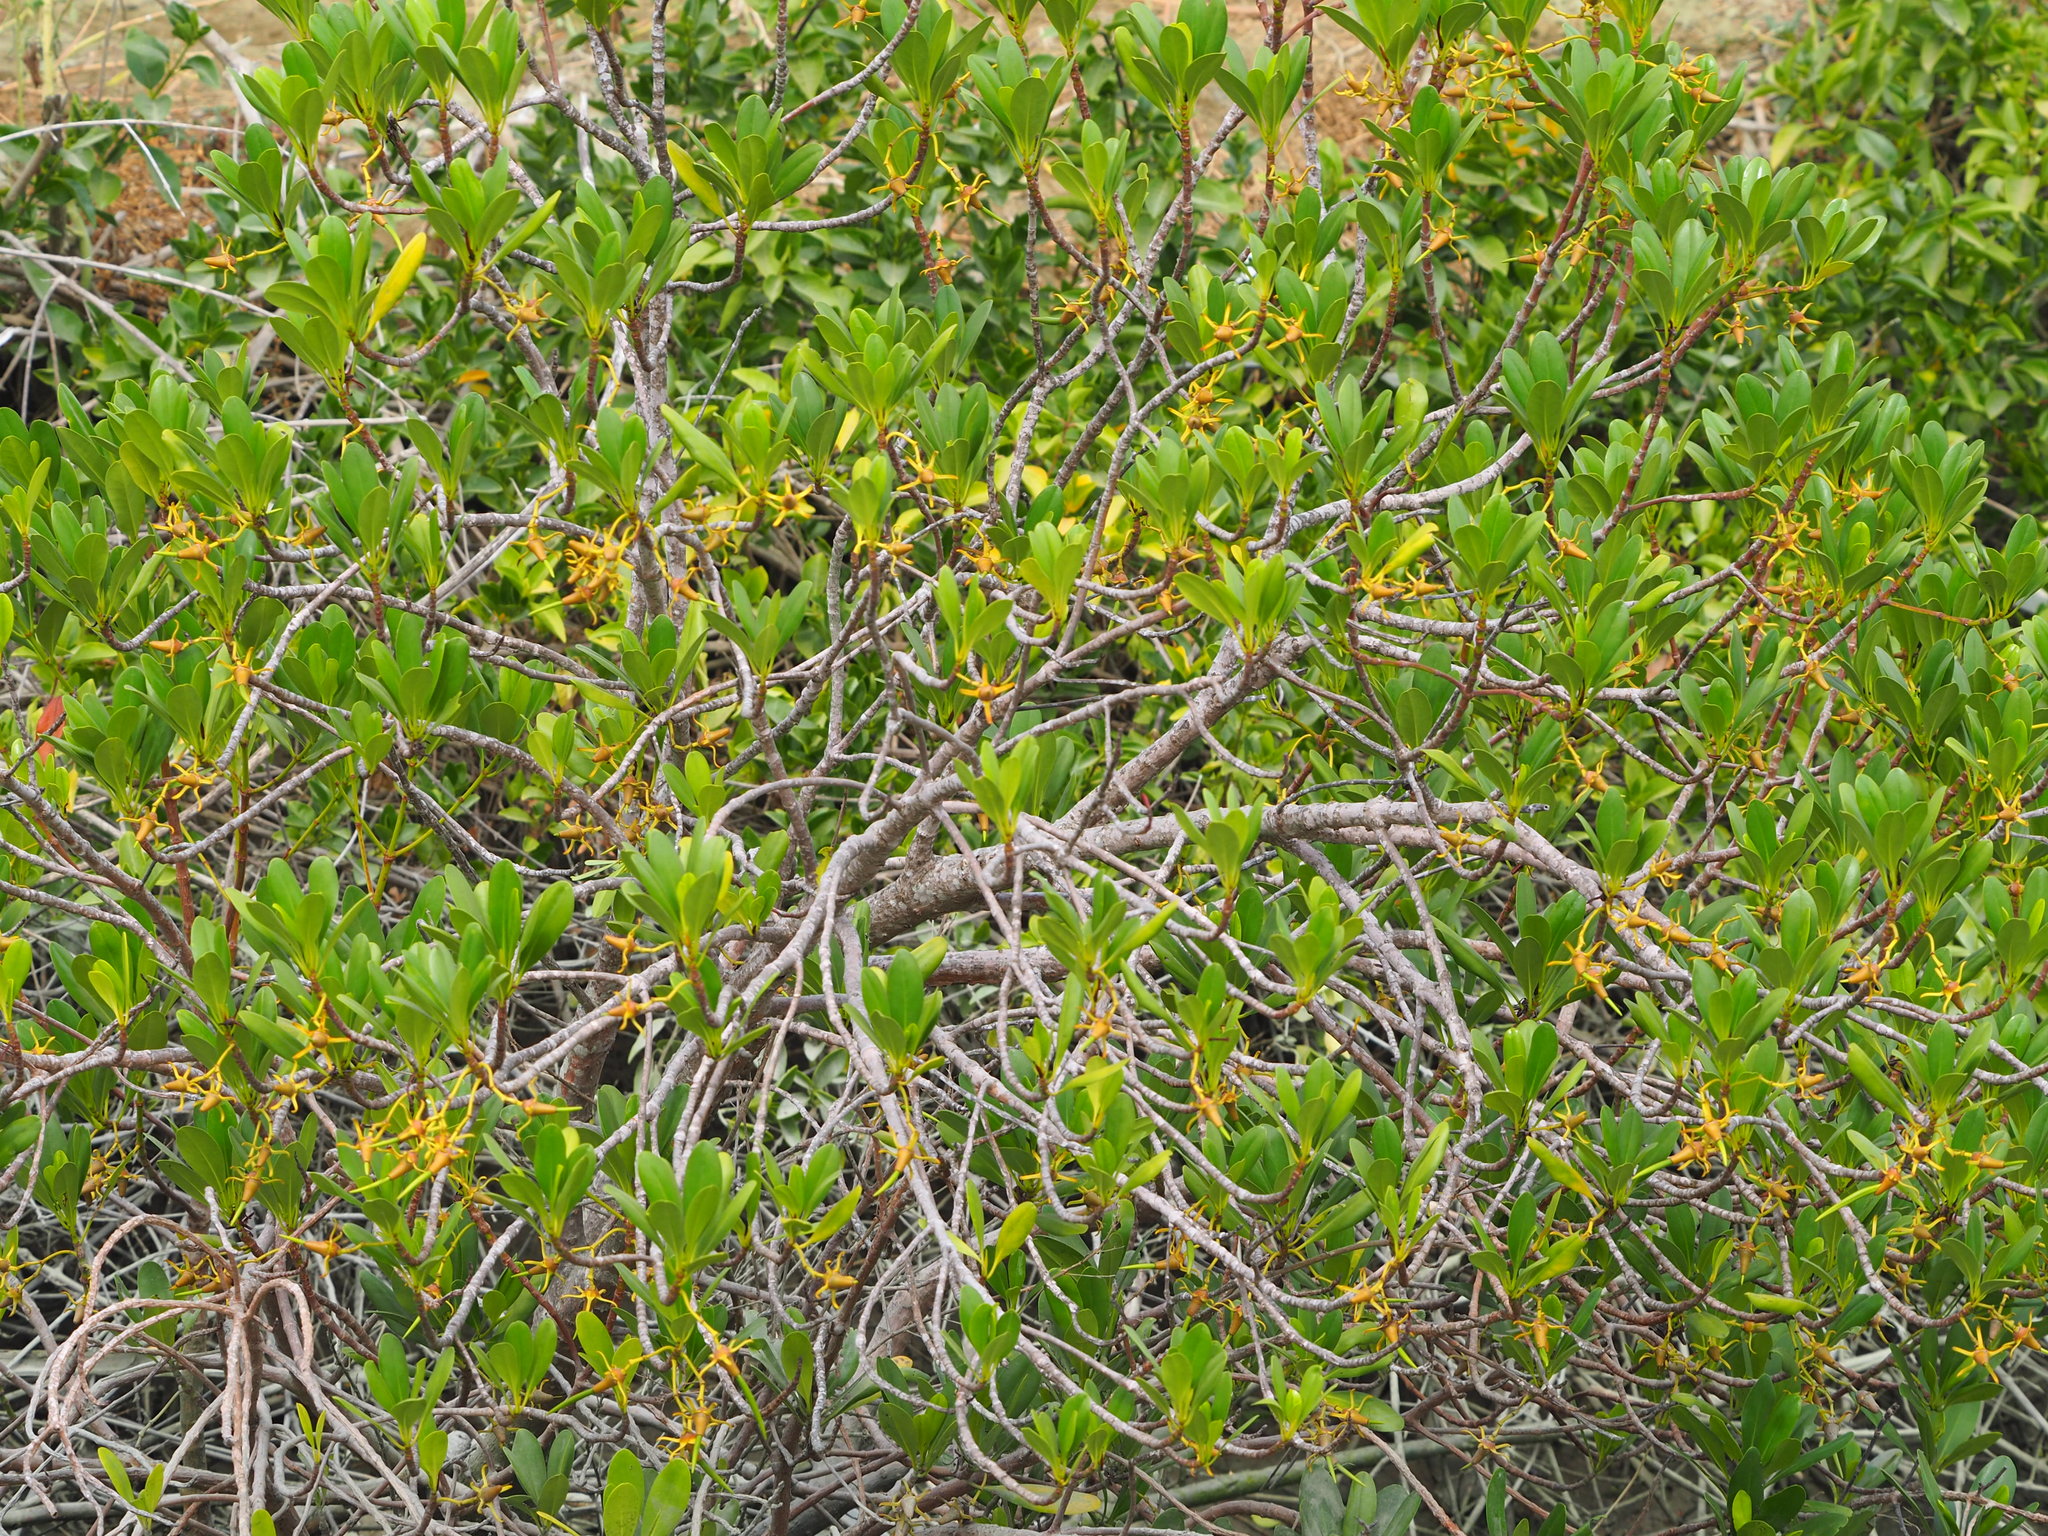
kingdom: Plantae
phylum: Tracheophyta
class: Magnoliopsida
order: Malpighiales
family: Rhizophoraceae
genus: Kandelia
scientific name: Kandelia obovata
